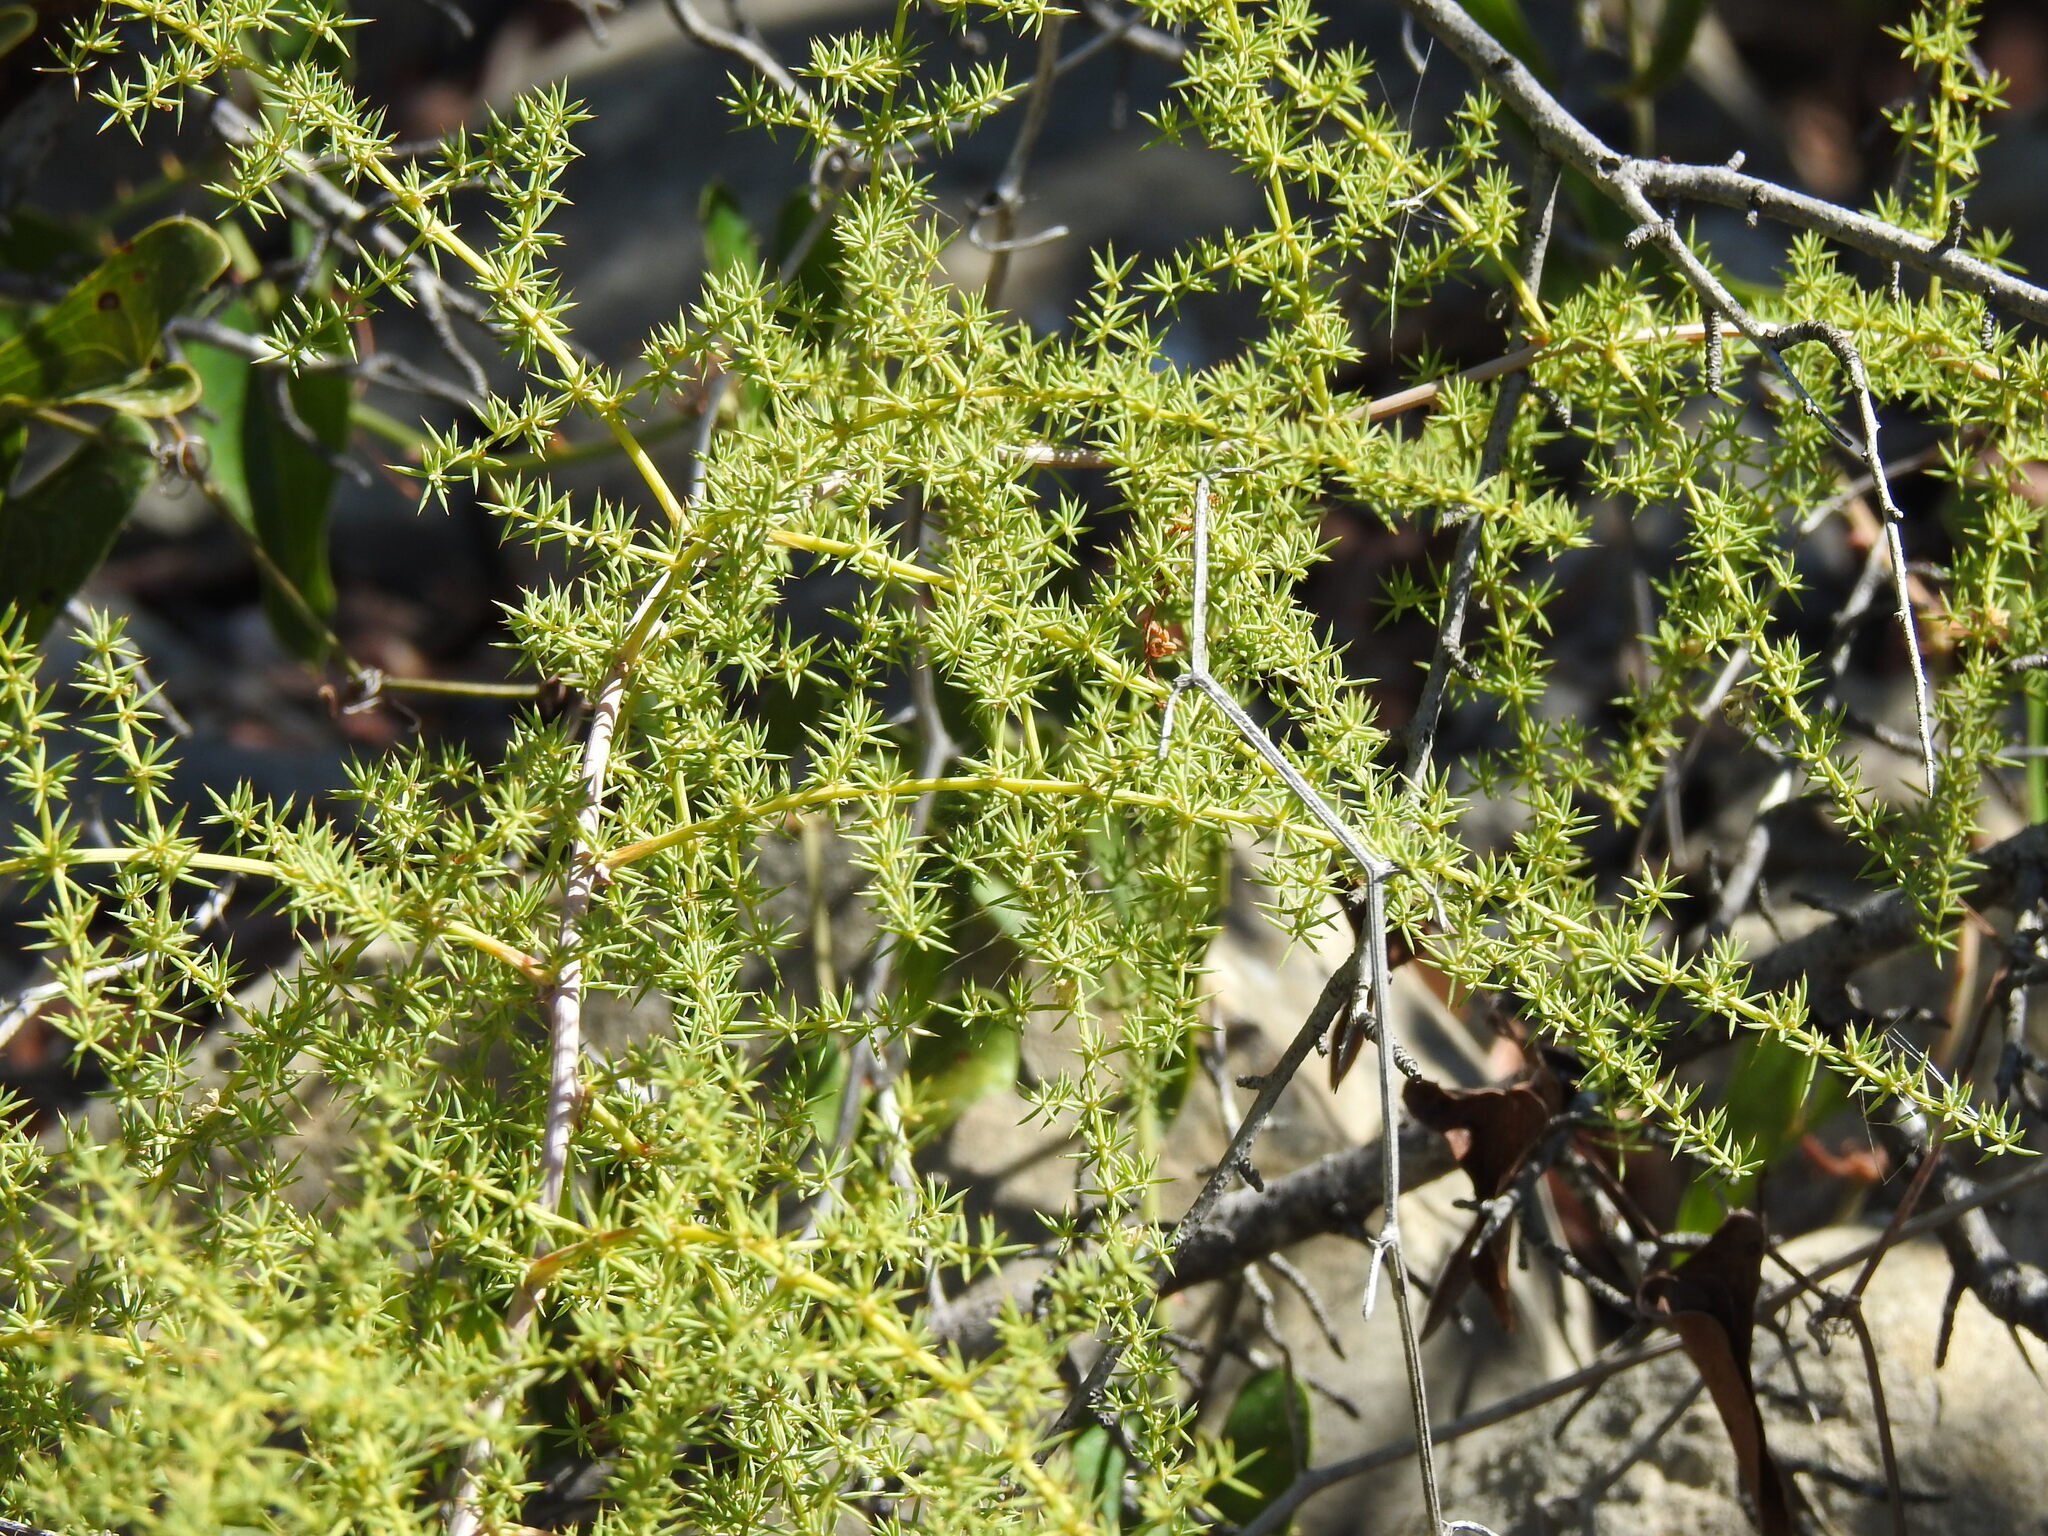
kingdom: Plantae
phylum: Tracheophyta
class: Liliopsida
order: Asparagales
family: Asparagaceae
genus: Asparagus
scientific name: Asparagus acutifolius
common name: Wild asparagus
